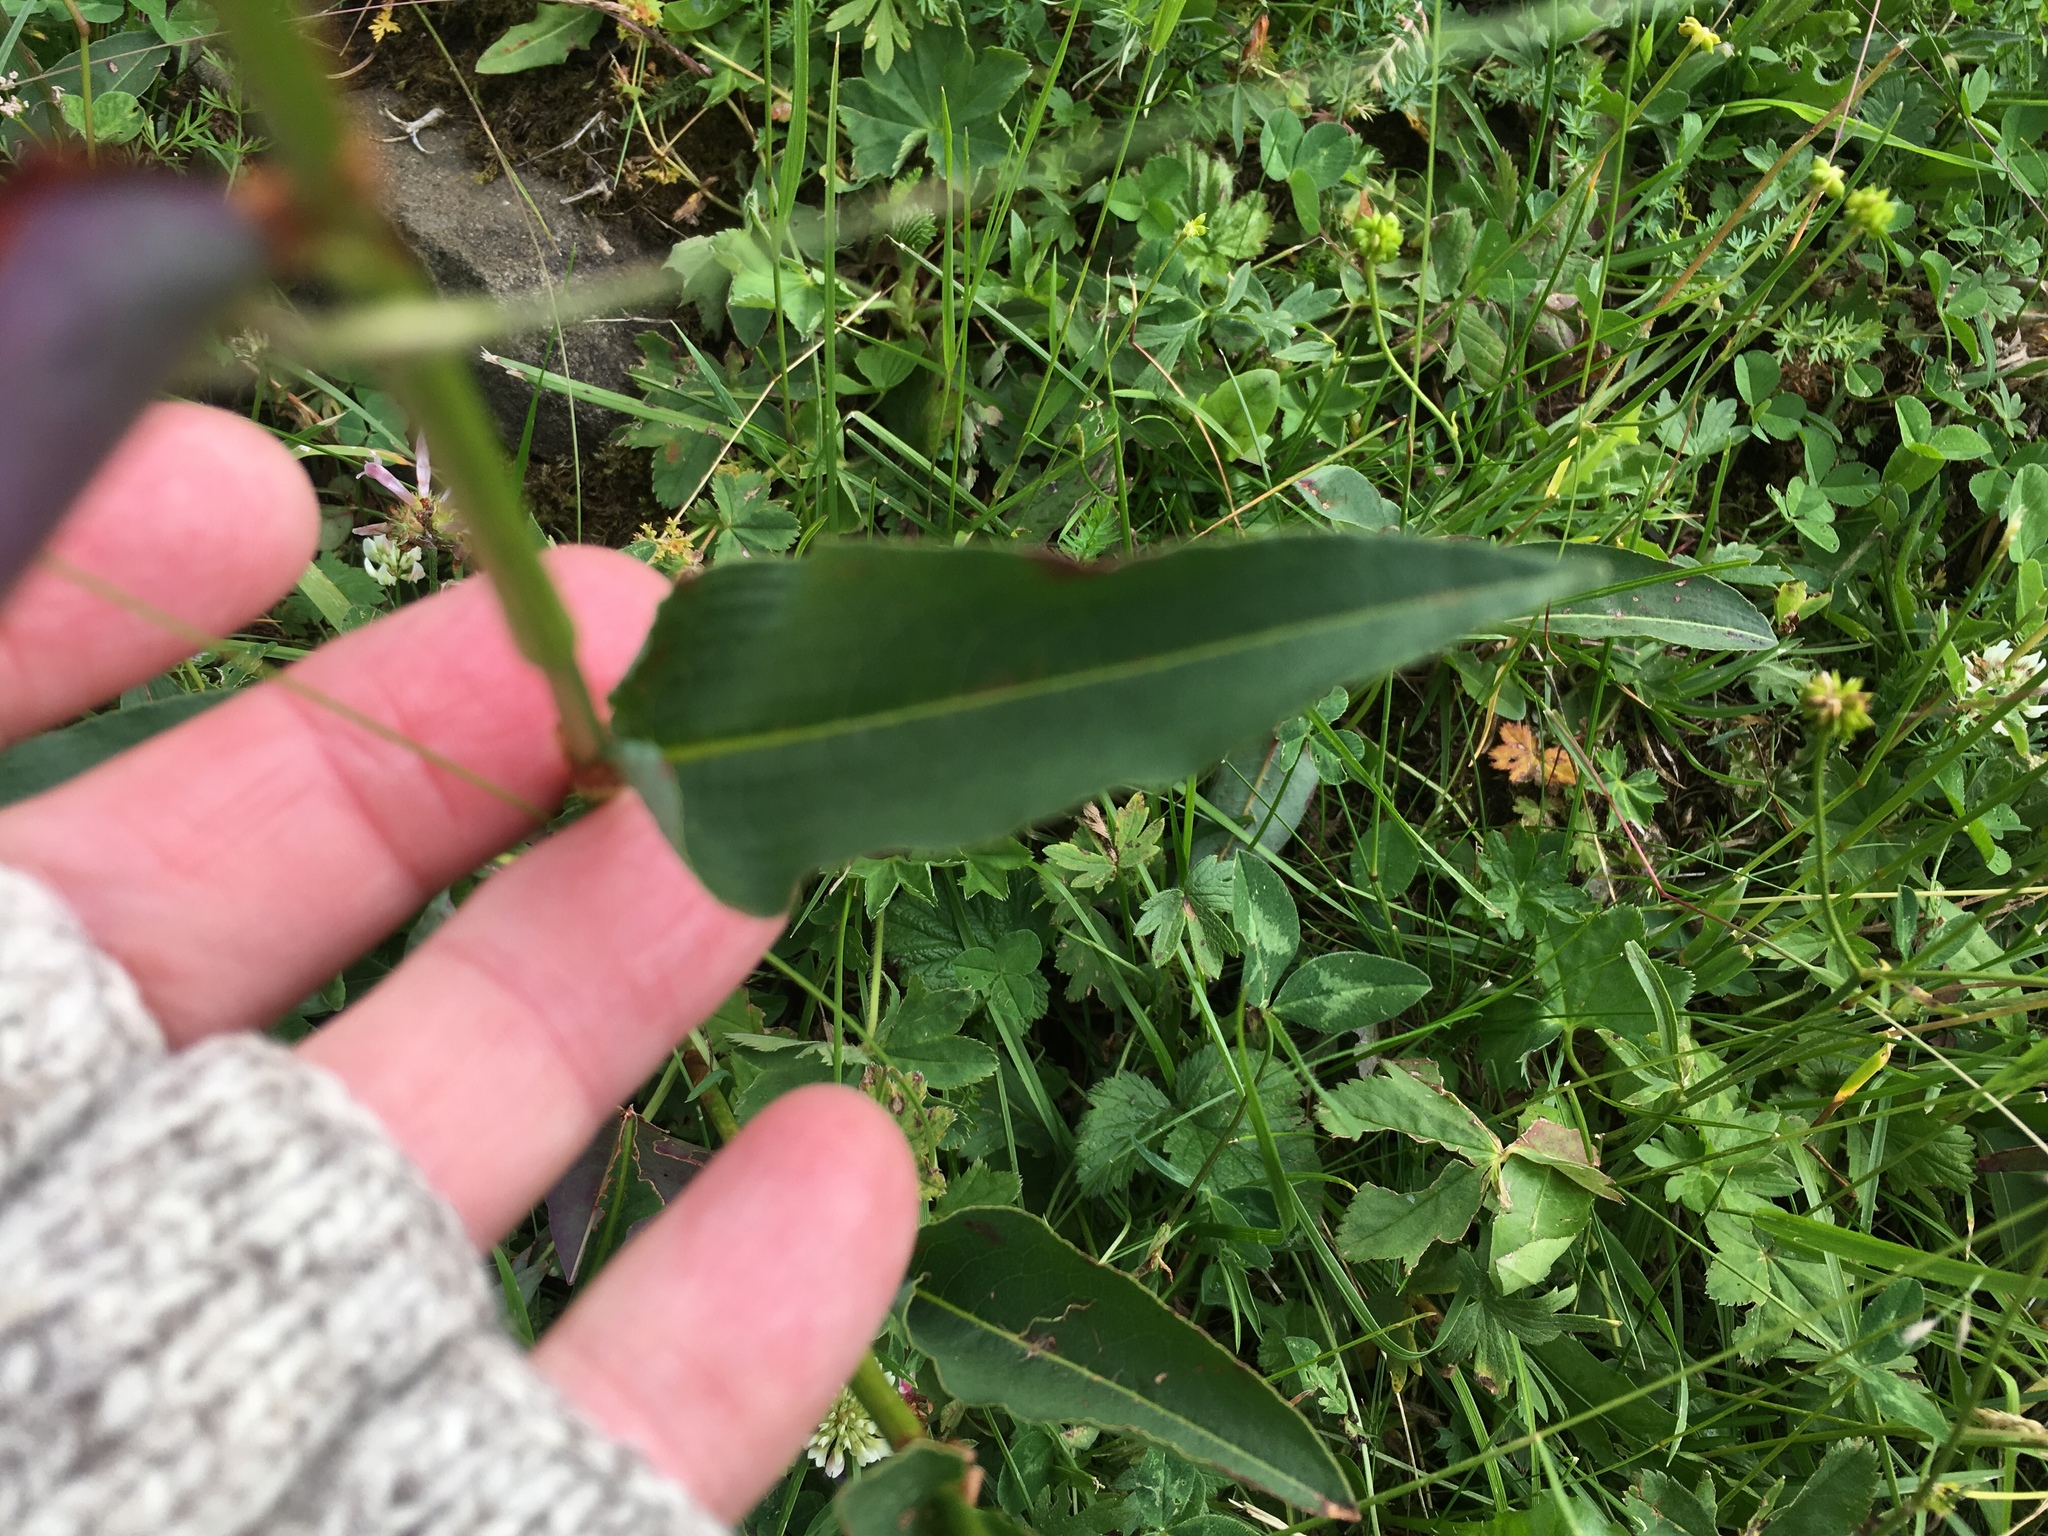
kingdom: Plantae
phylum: Tracheophyta
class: Magnoliopsida
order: Caryophyllales
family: Polygonaceae
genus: Bistorta
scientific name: Bistorta officinalis
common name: Common bistort
